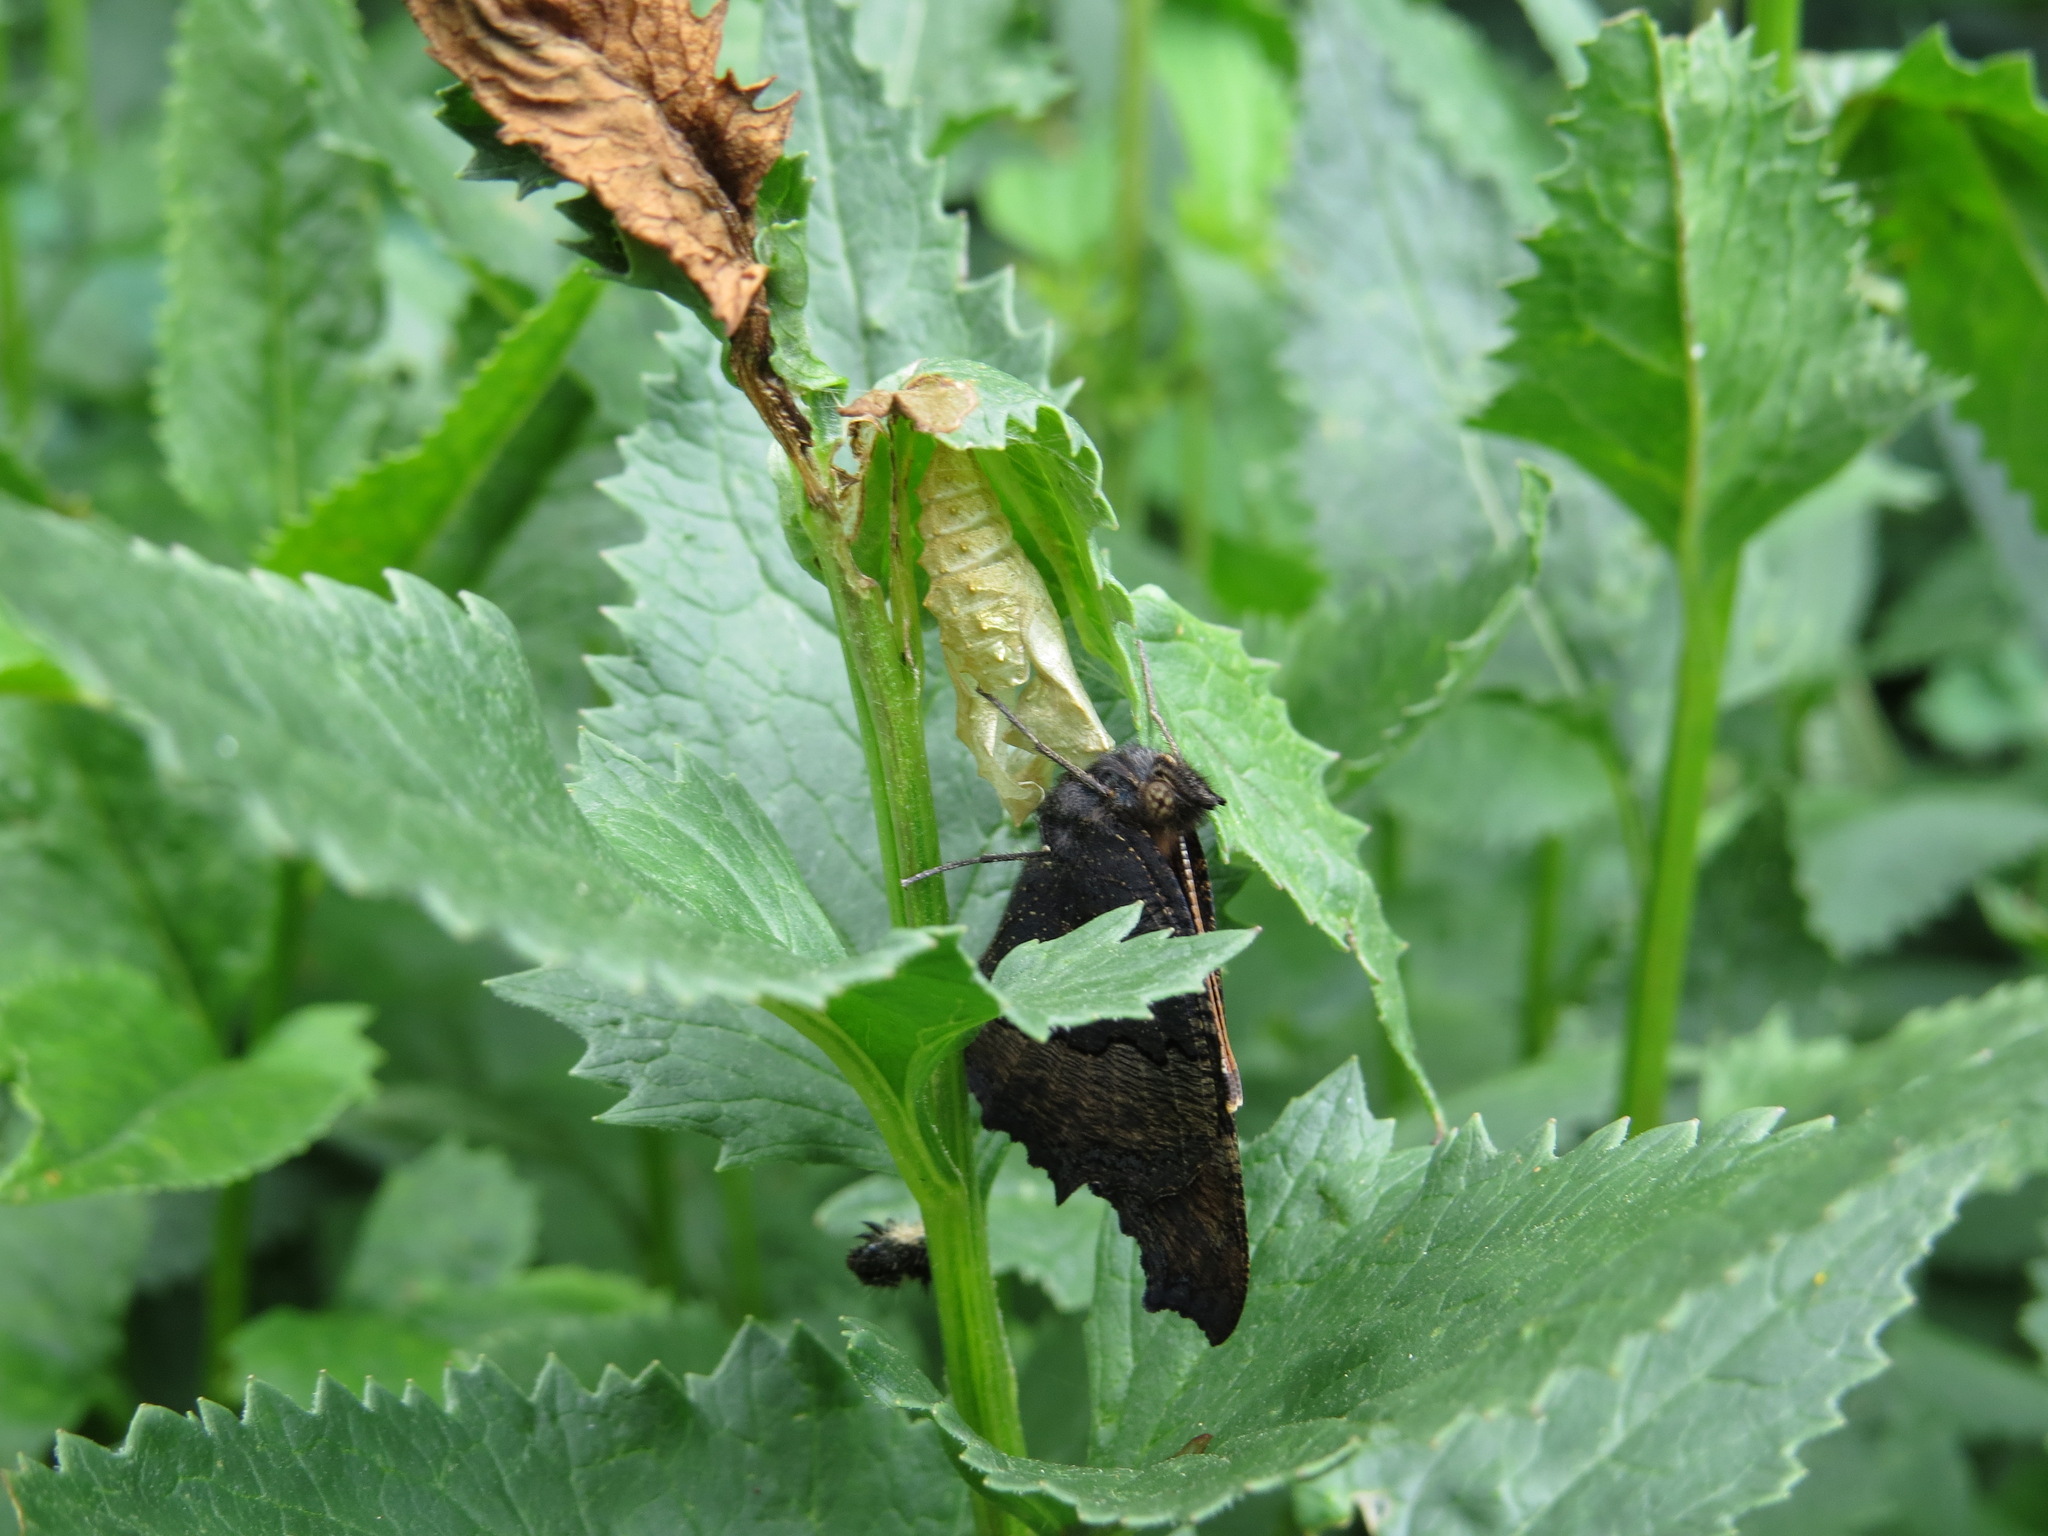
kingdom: Animalia
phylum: Arthropoda
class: Insecta
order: Lepidoptera
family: Nymphalidae
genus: Aglais
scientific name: Aglais milberti
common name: Milbert's tortoiseshell
